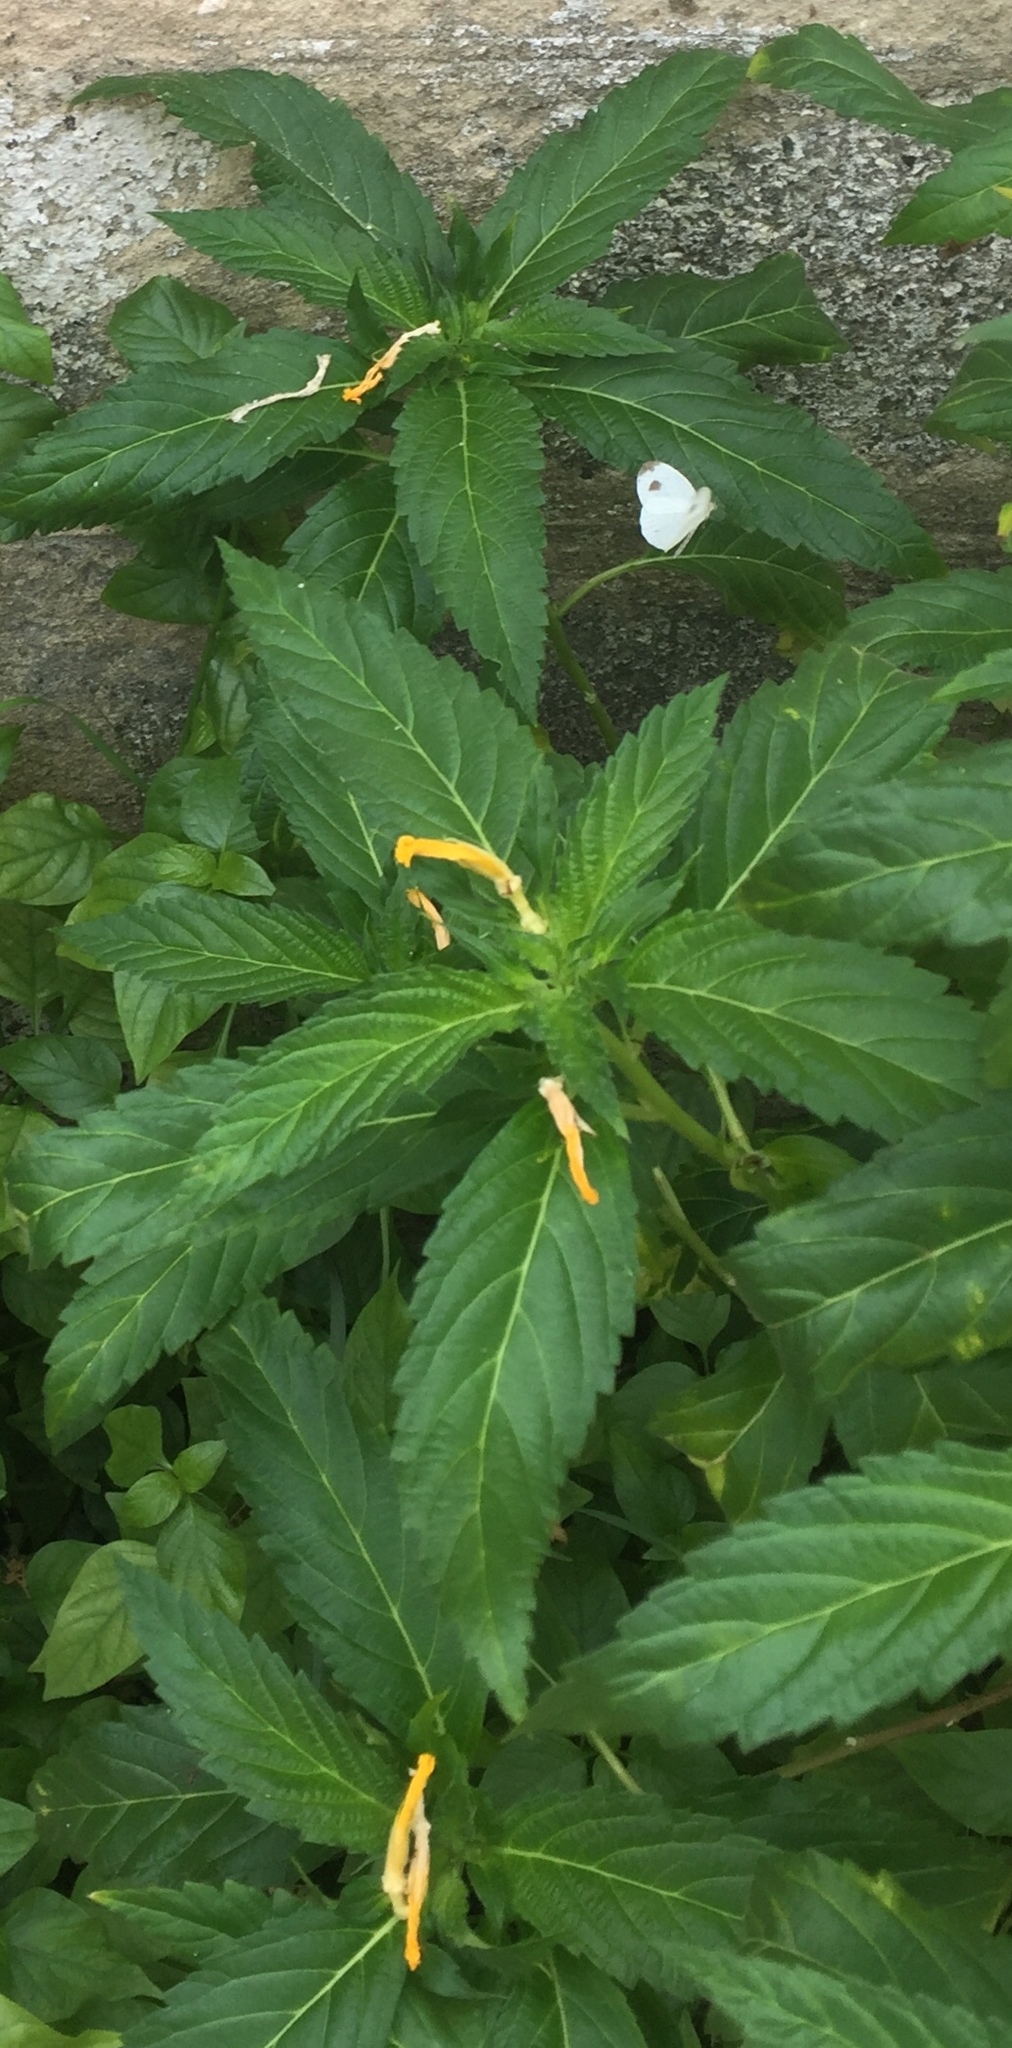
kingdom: Plantae
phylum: Tracheophyta
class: Magnoliopsida
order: Malpighiales
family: Turneraceae
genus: Turnera
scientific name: Turnera ulmifolia
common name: Ramgoat dashalong
